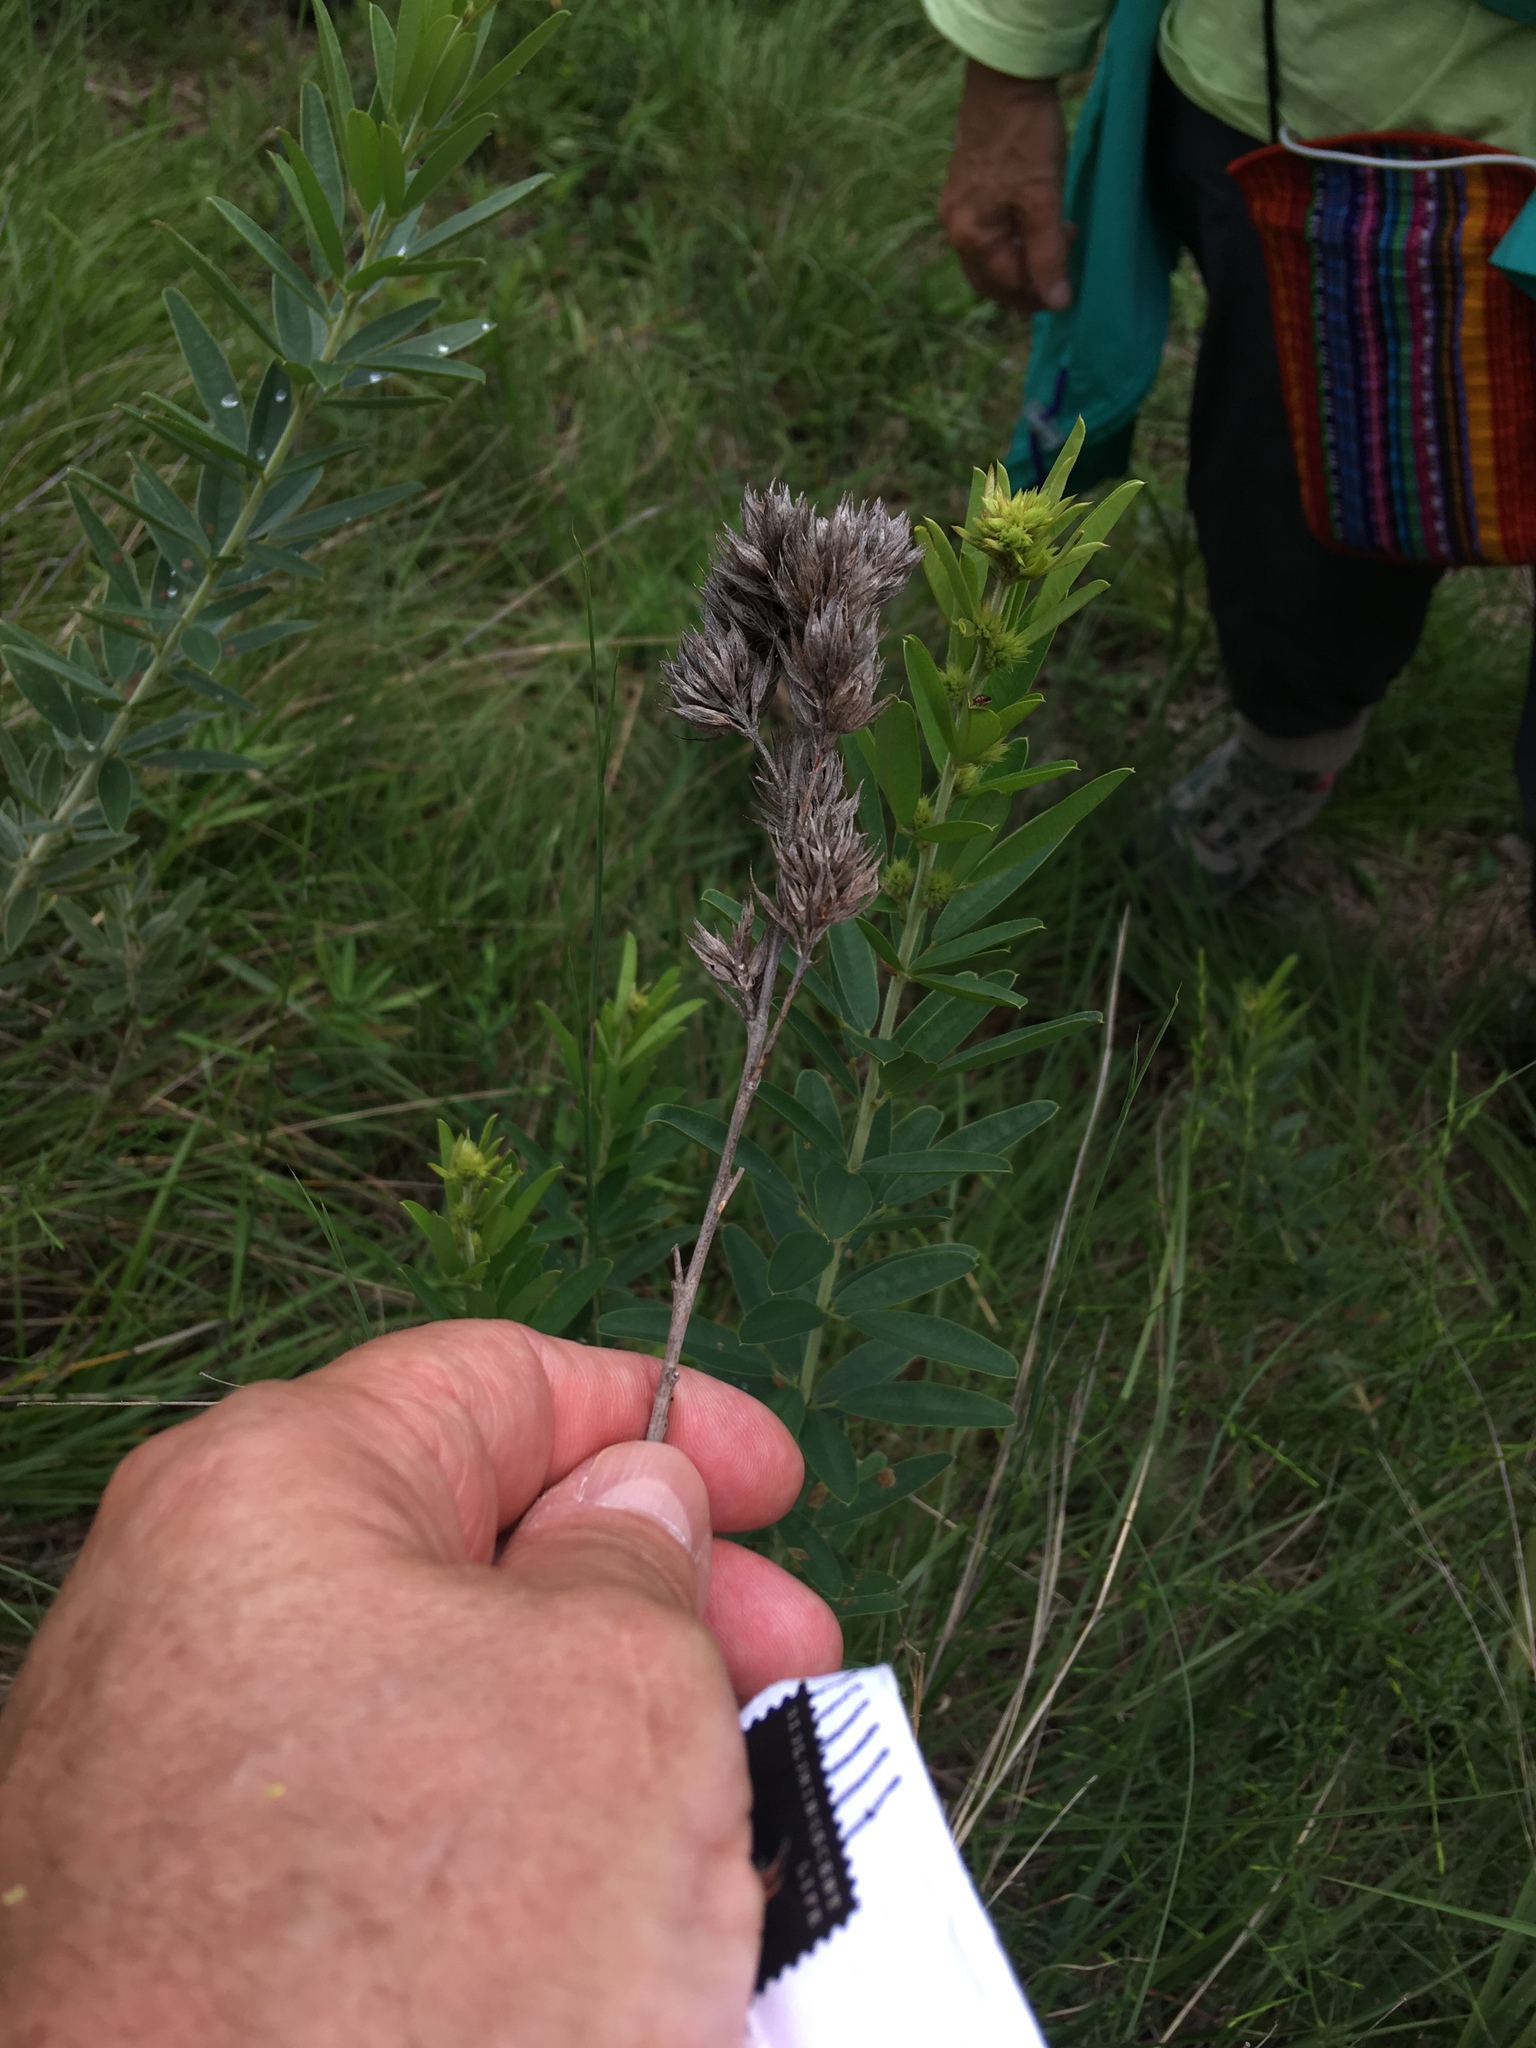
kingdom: Plantae
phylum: Tracheophyta
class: Magnoliopsida
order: Fabales
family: Fabaceae
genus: Lespedeza
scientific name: Lespedeza capitata
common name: Dusty clover
